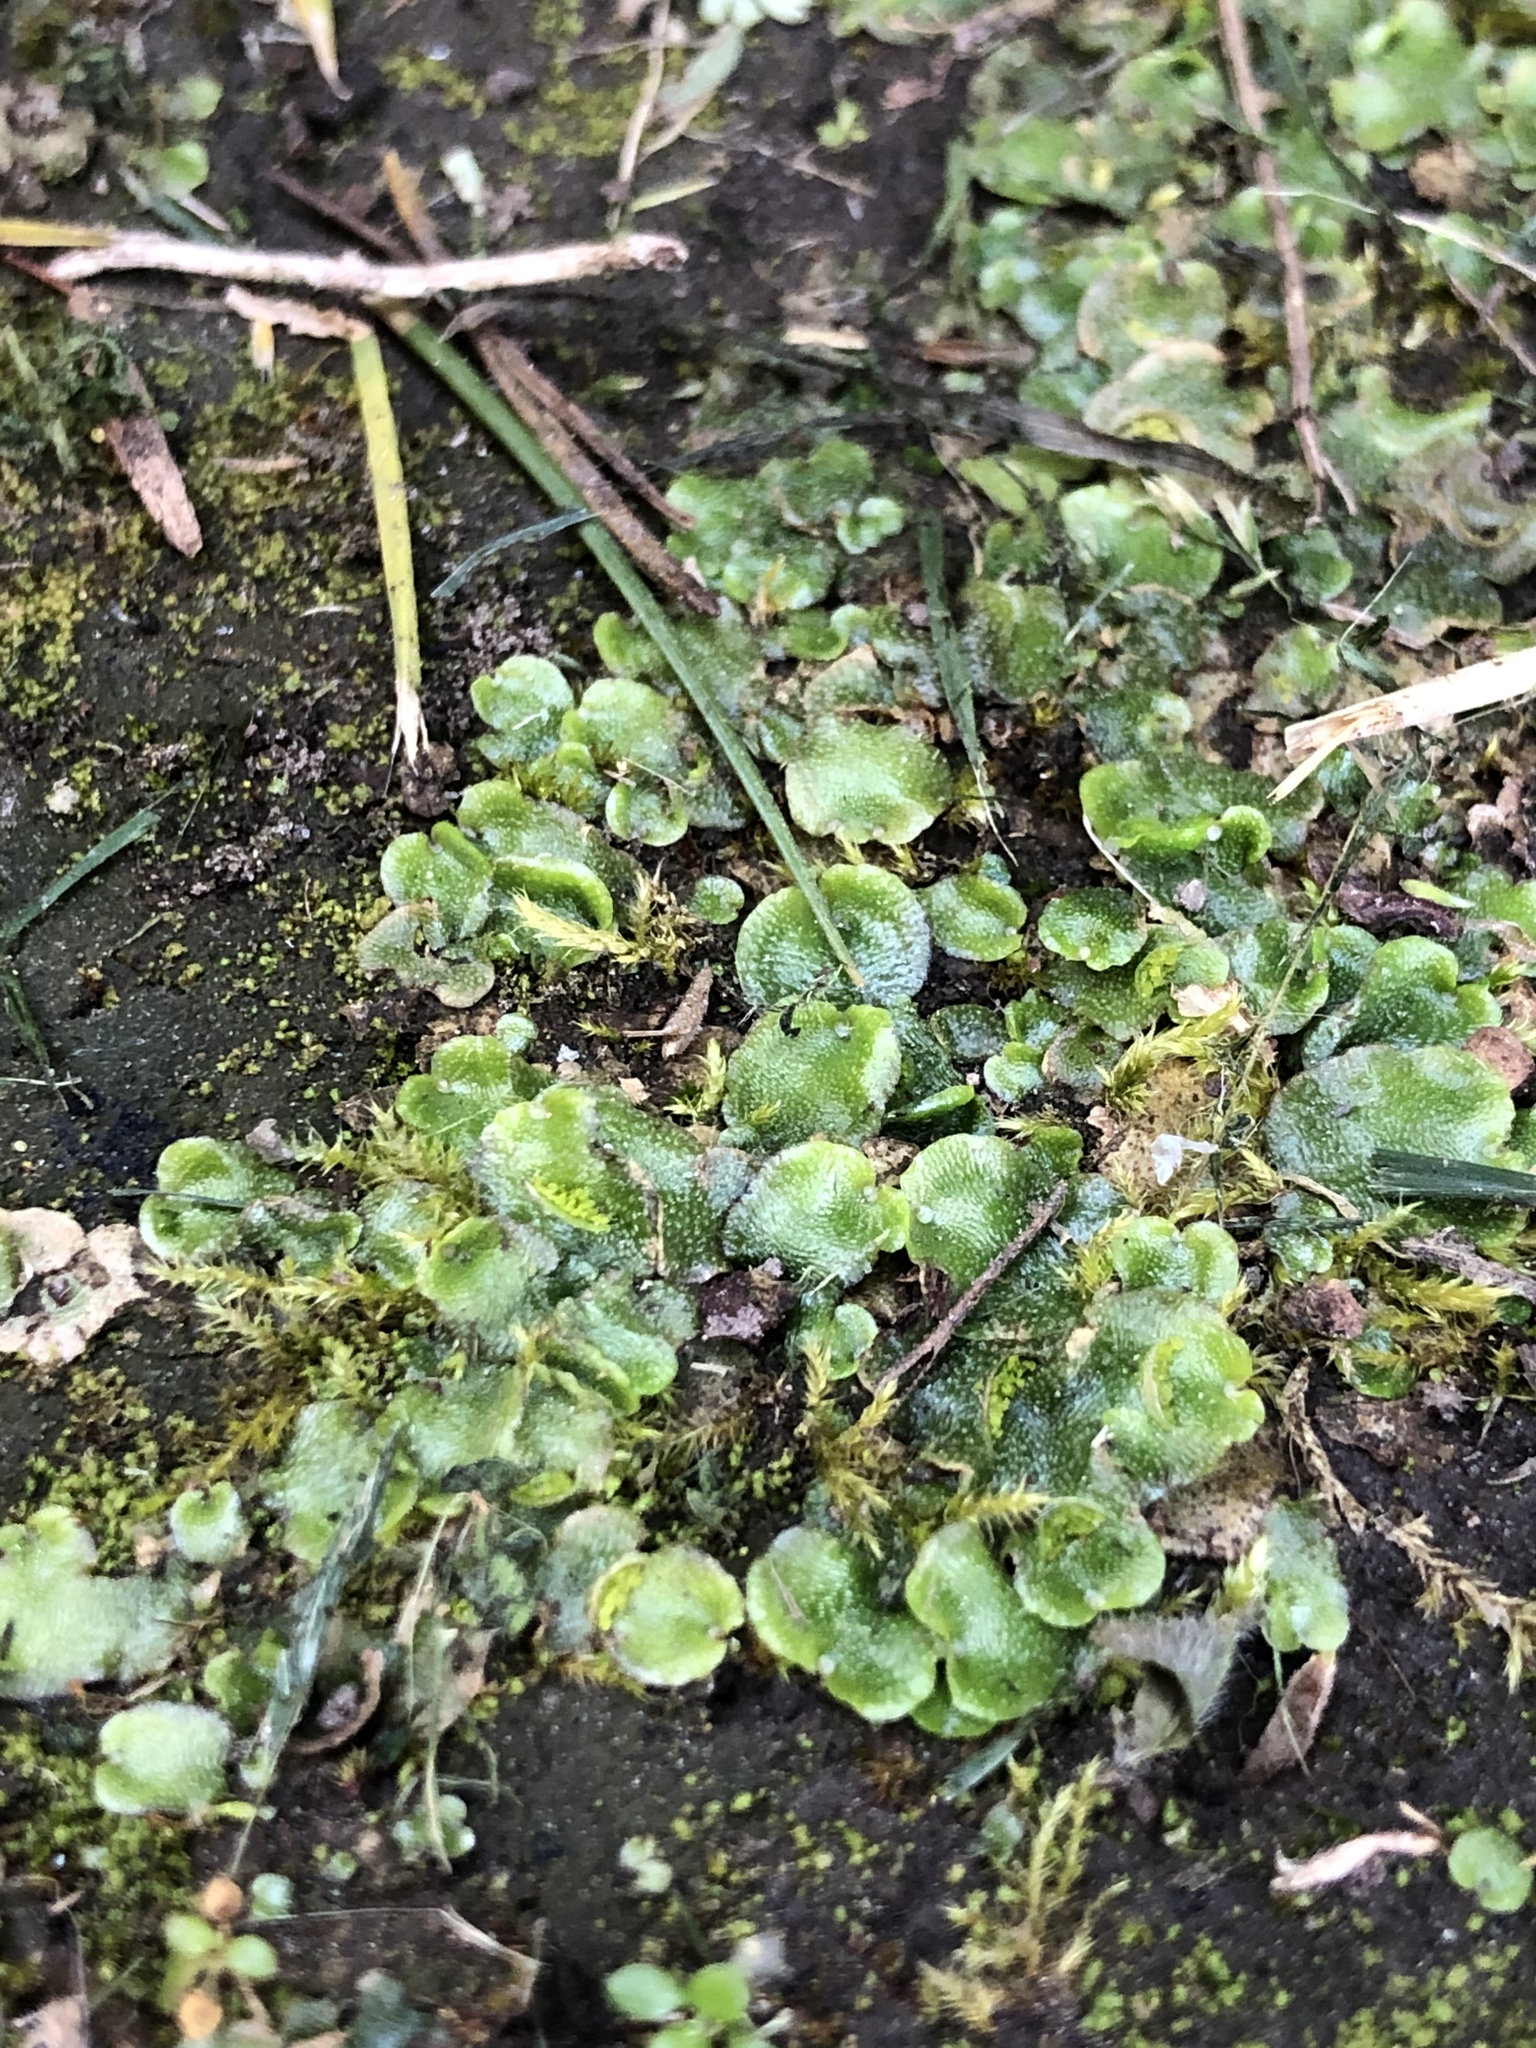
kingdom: Plantae
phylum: Marchantiophyta
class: Marchantiopsida
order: Lunulariales
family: Lunulariaceae
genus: Lunularia
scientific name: Lunularia cruciata
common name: Crescent-cup liverwort
